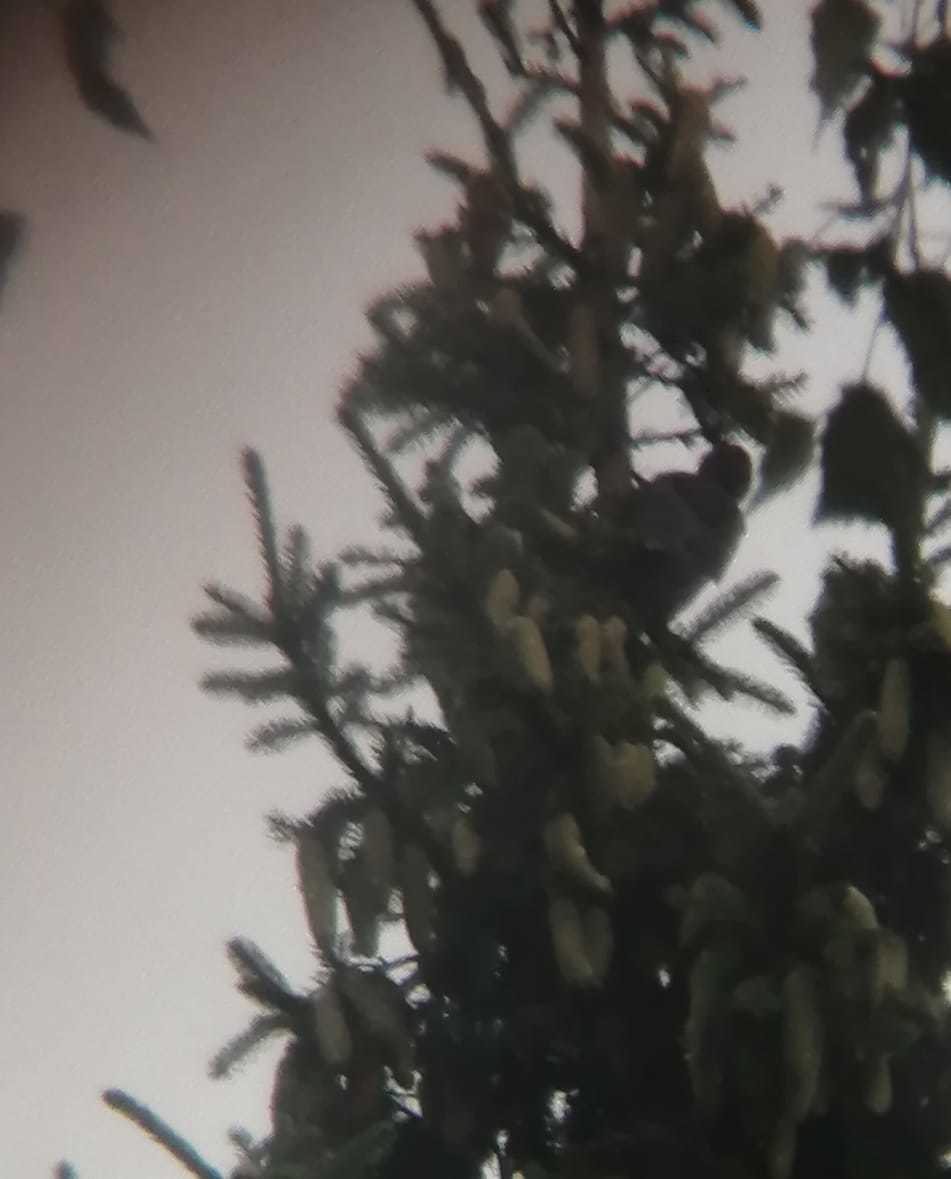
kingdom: Animalia
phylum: Chordata
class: Aves
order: Piciformes
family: Picidae
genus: Dryocopus
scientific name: Dryocopus martius
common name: Black woodpecker
